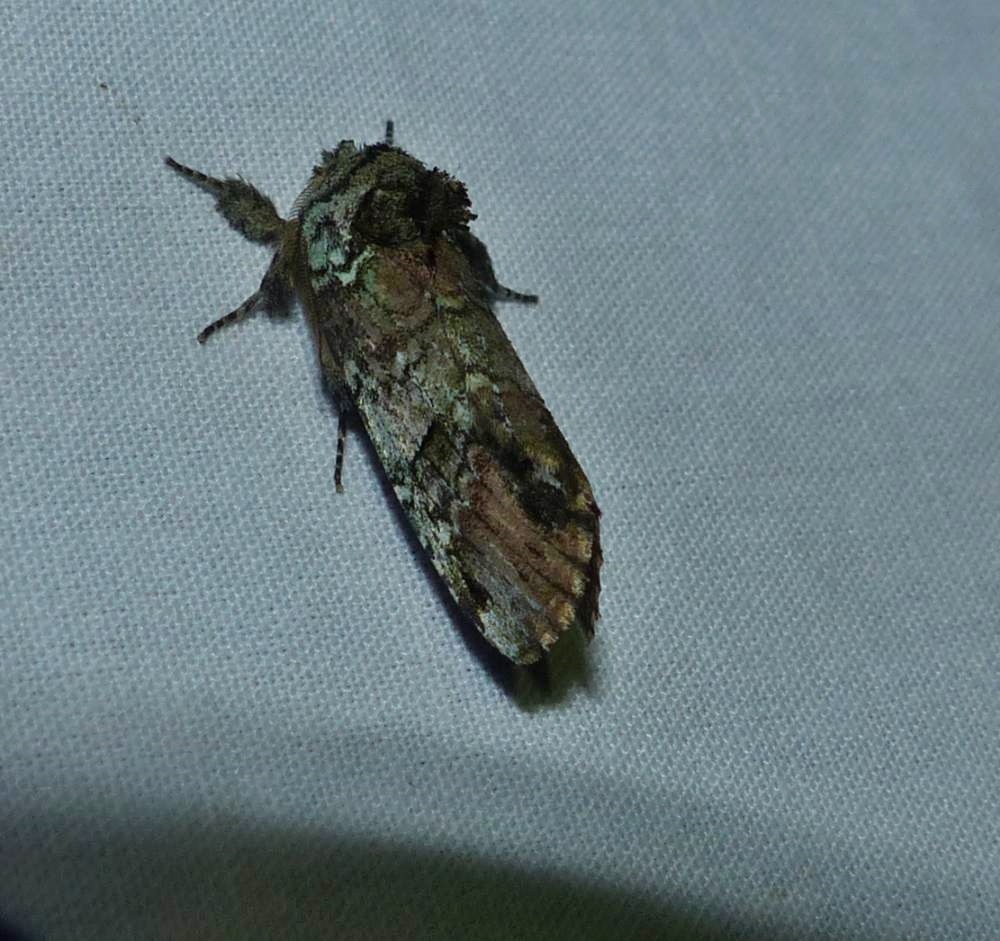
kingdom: Animalia
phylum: Arthropoda
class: Insecta
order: Lepidoptera
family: Notodontidae
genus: Schizura
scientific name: Schizura
